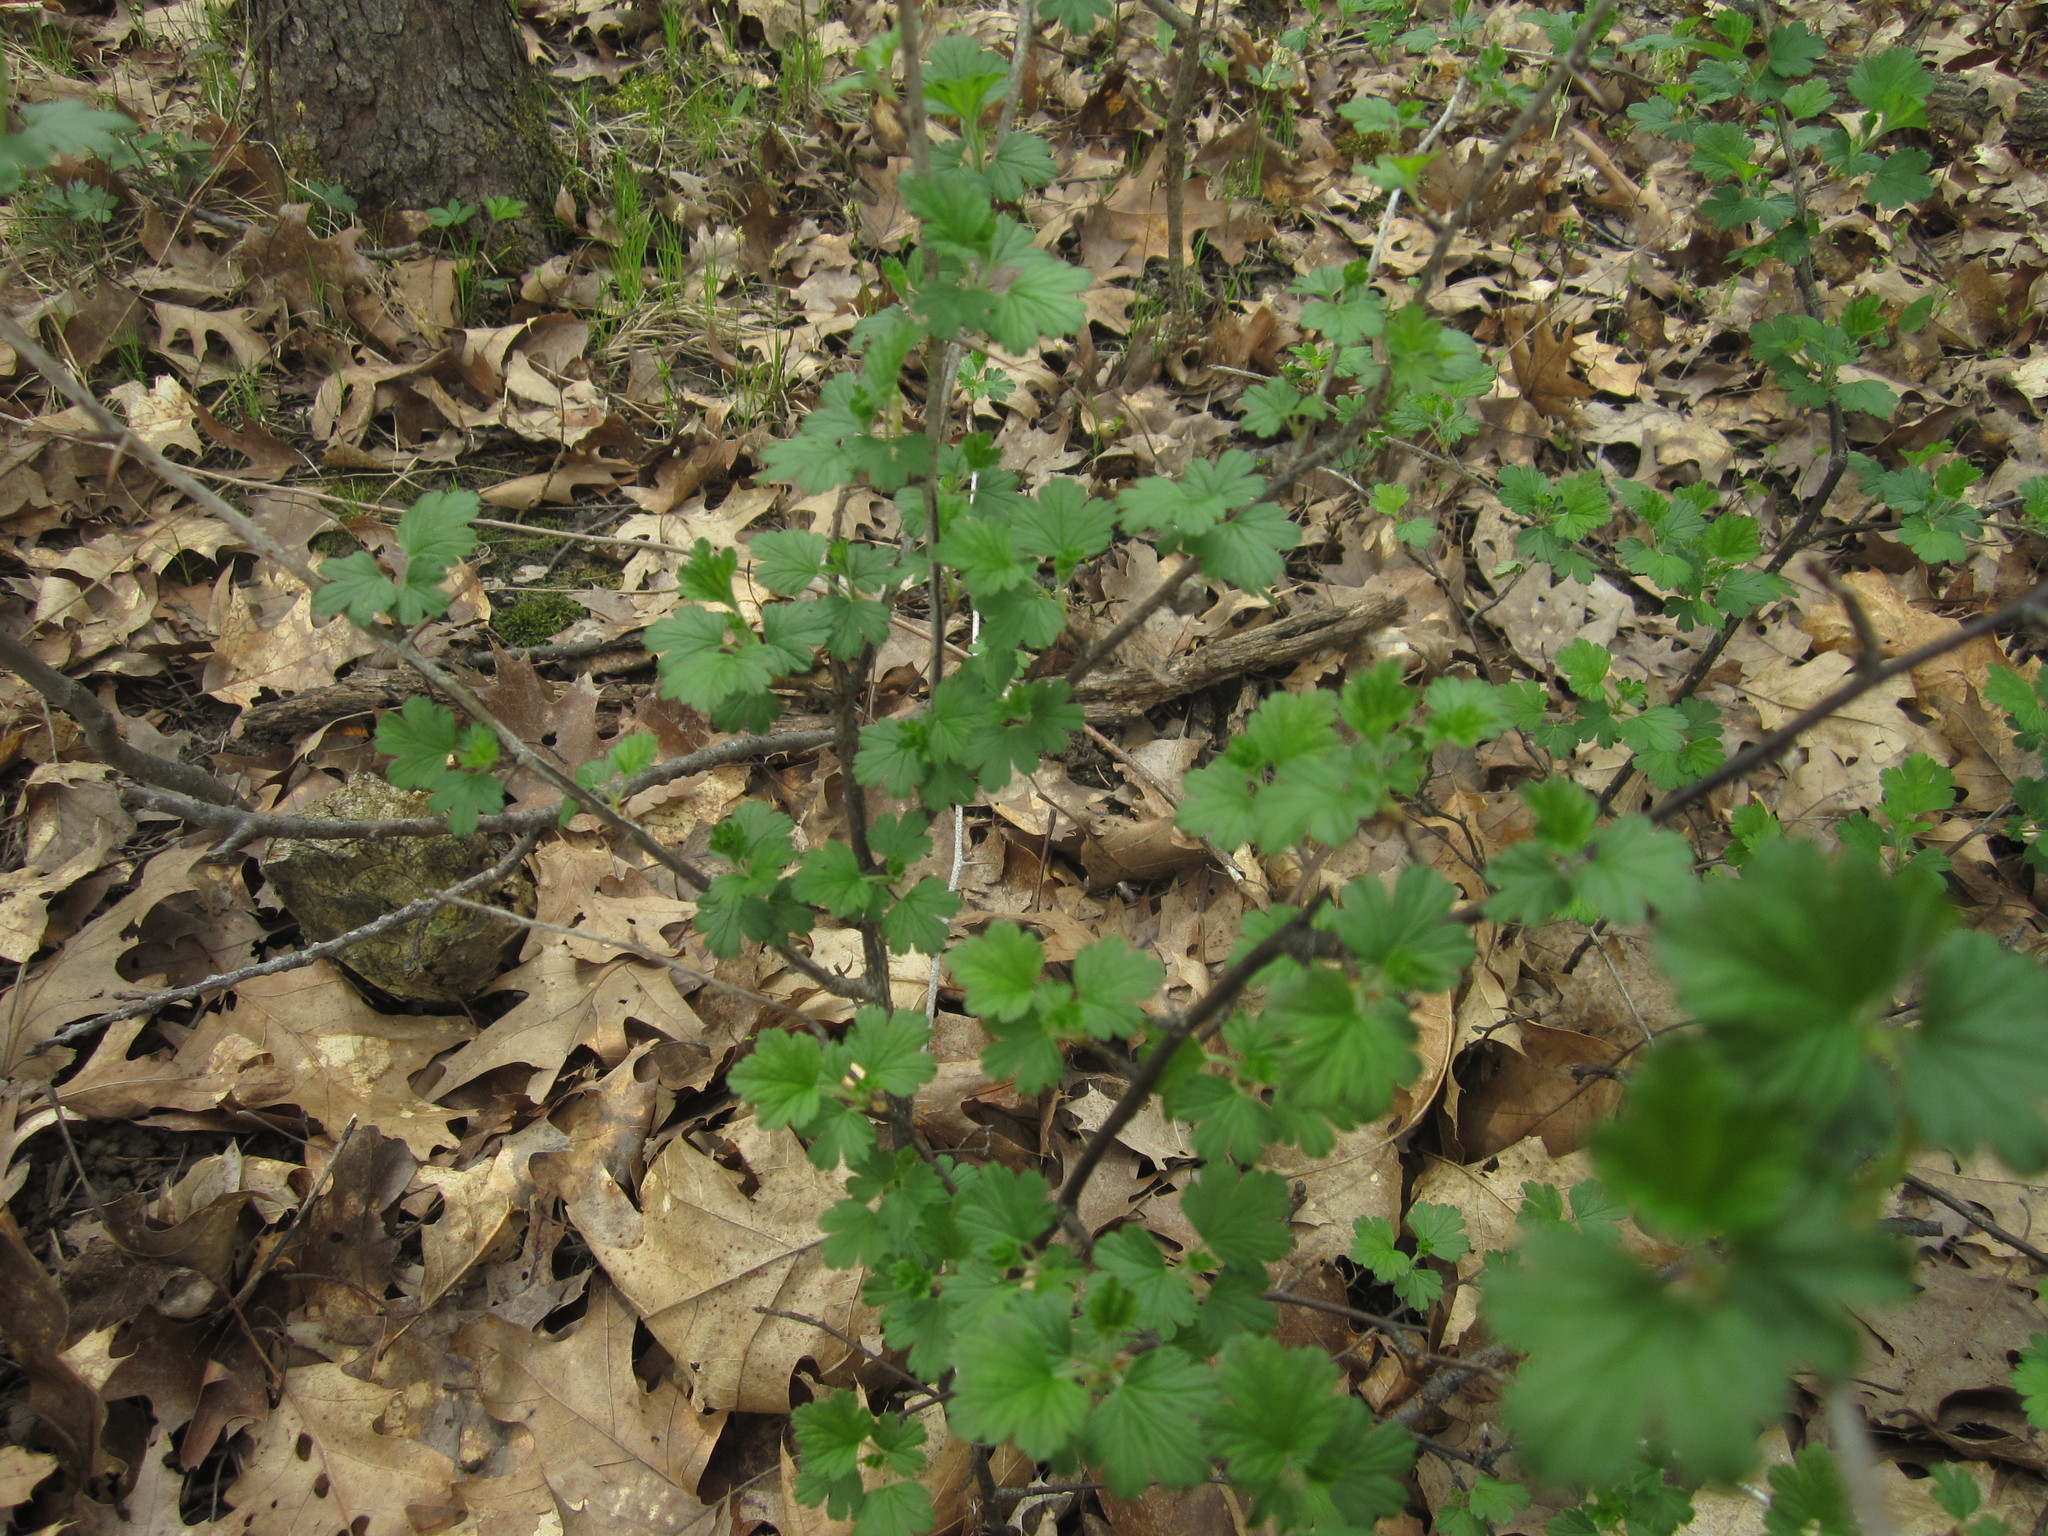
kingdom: Plantae
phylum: Tracheophyta
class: Magnoliopsida
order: Saxifragales
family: Grossulariaceae
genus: Ribes
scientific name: Ribes missouriense
